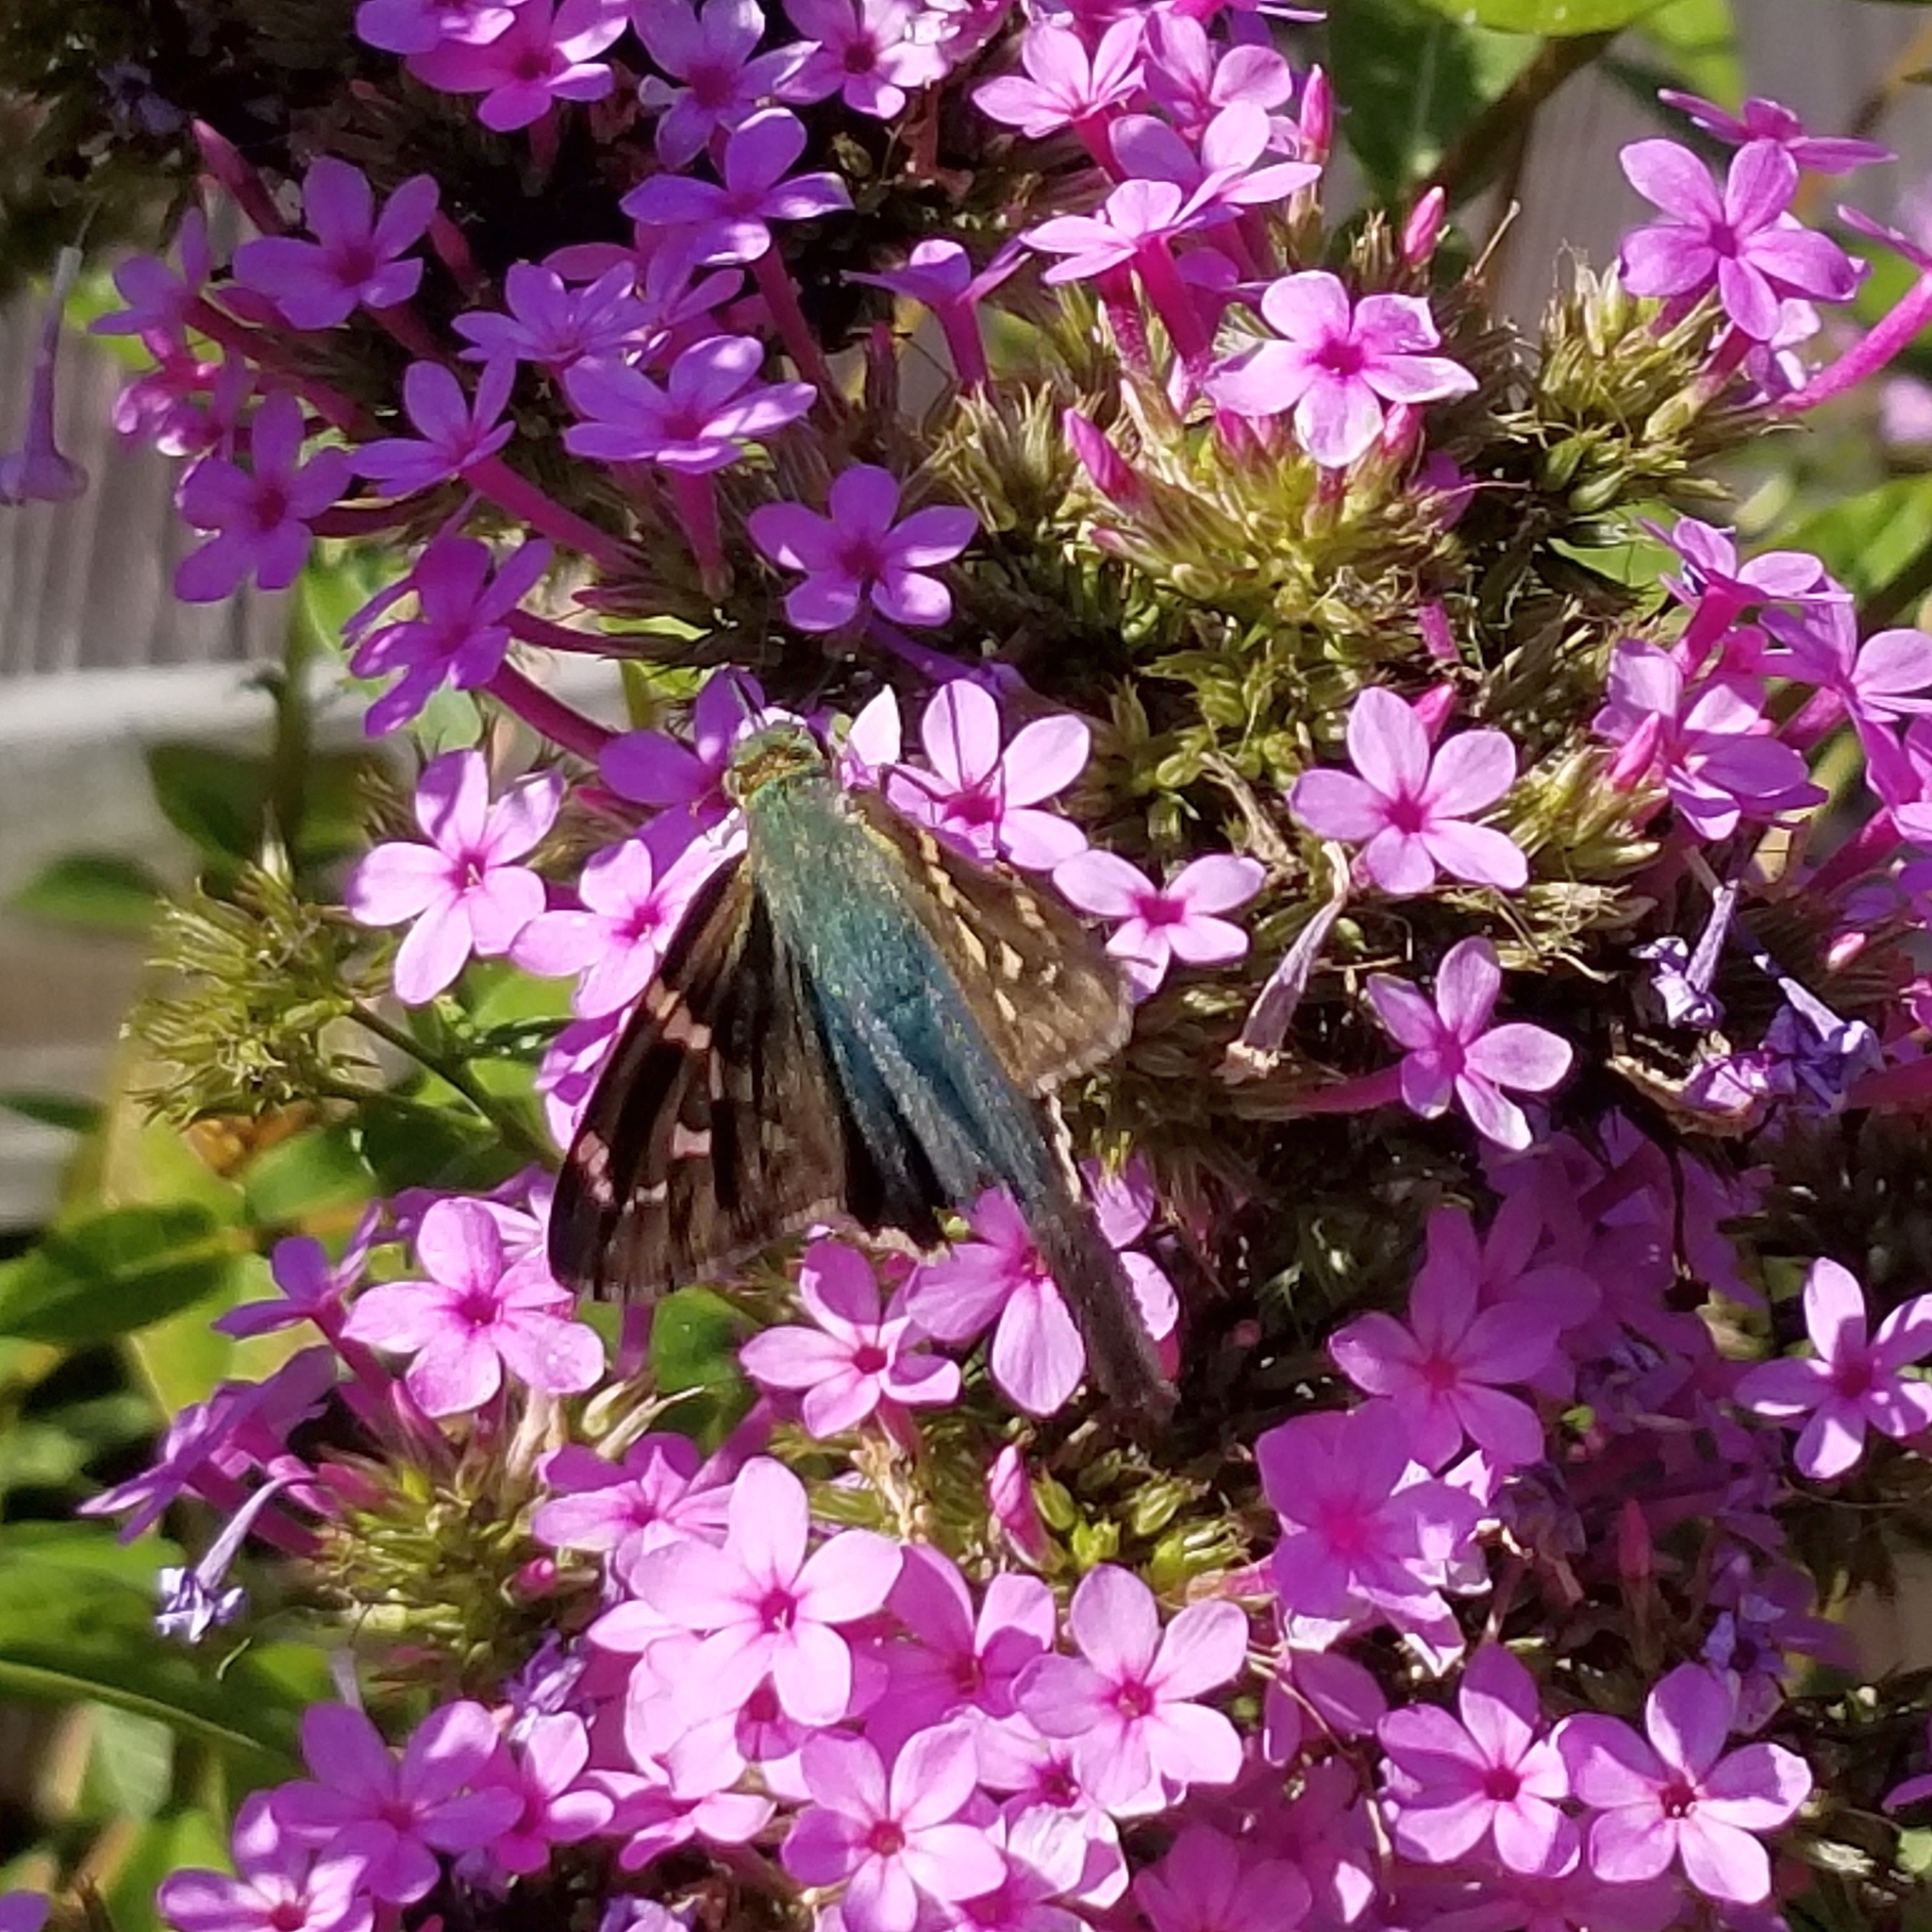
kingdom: Animalia
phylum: Arthropoda
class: Insecta
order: Lepidoptera
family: Hesperiidae
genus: Urbanus
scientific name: Urbanus proteus
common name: Long-tailed skipper
